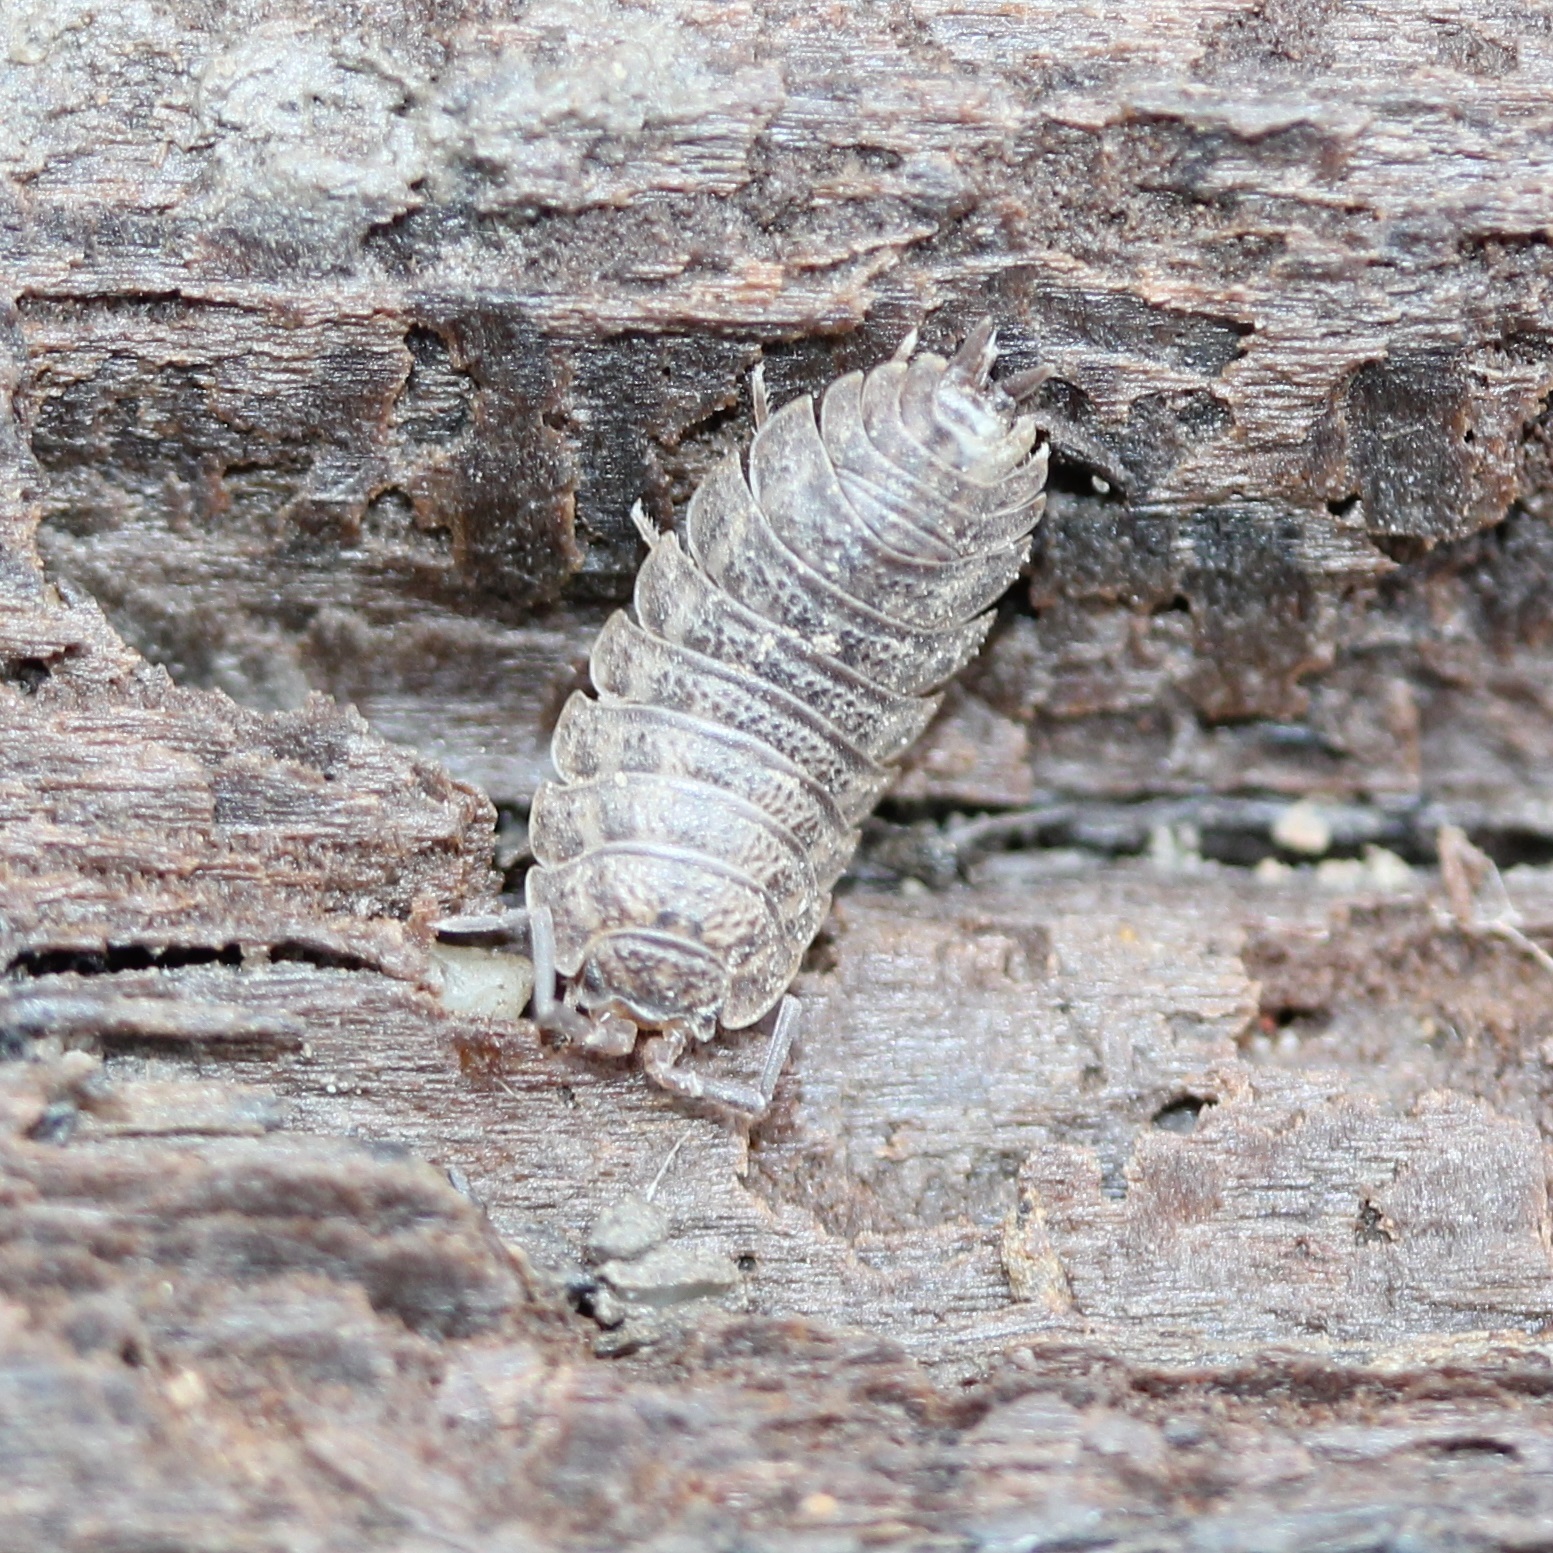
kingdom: Animalia
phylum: Arthropoda
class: Malacostraca
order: Isopoda
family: Trachelipodidae
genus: Trachelipus
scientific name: Trachelipus rathkii
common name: Isopod
